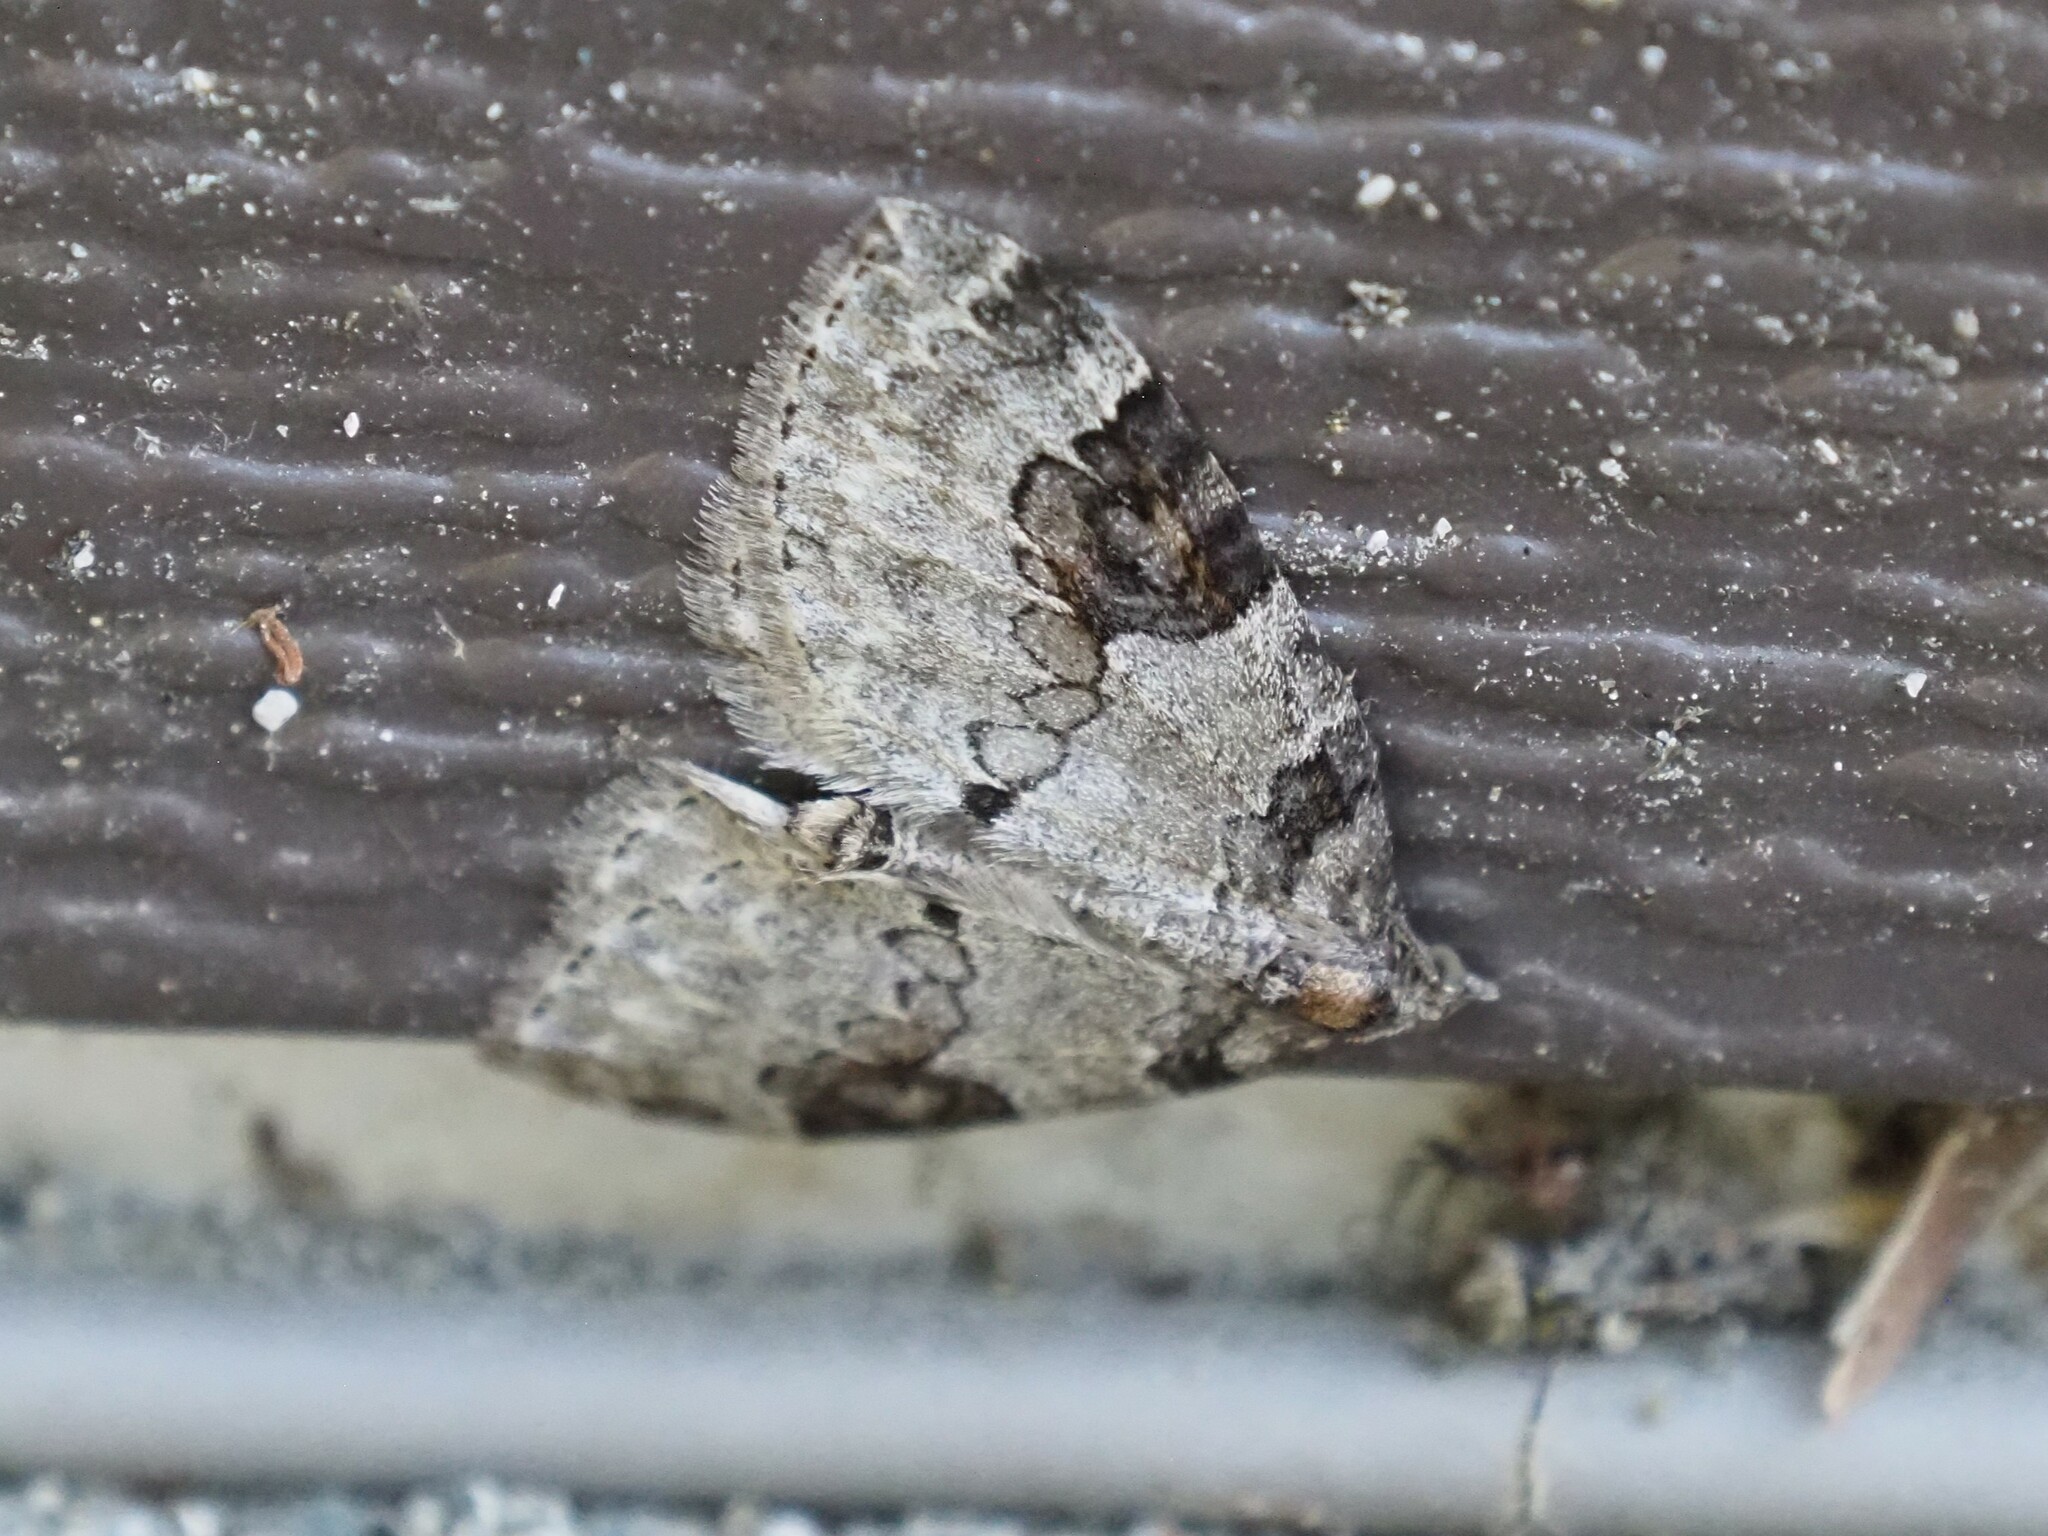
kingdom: Animalia
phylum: Arthropoda
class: Insecta
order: Lepidoptera
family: Geometridae
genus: Plemyria
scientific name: Plemyria georgii
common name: George's carpet moth
